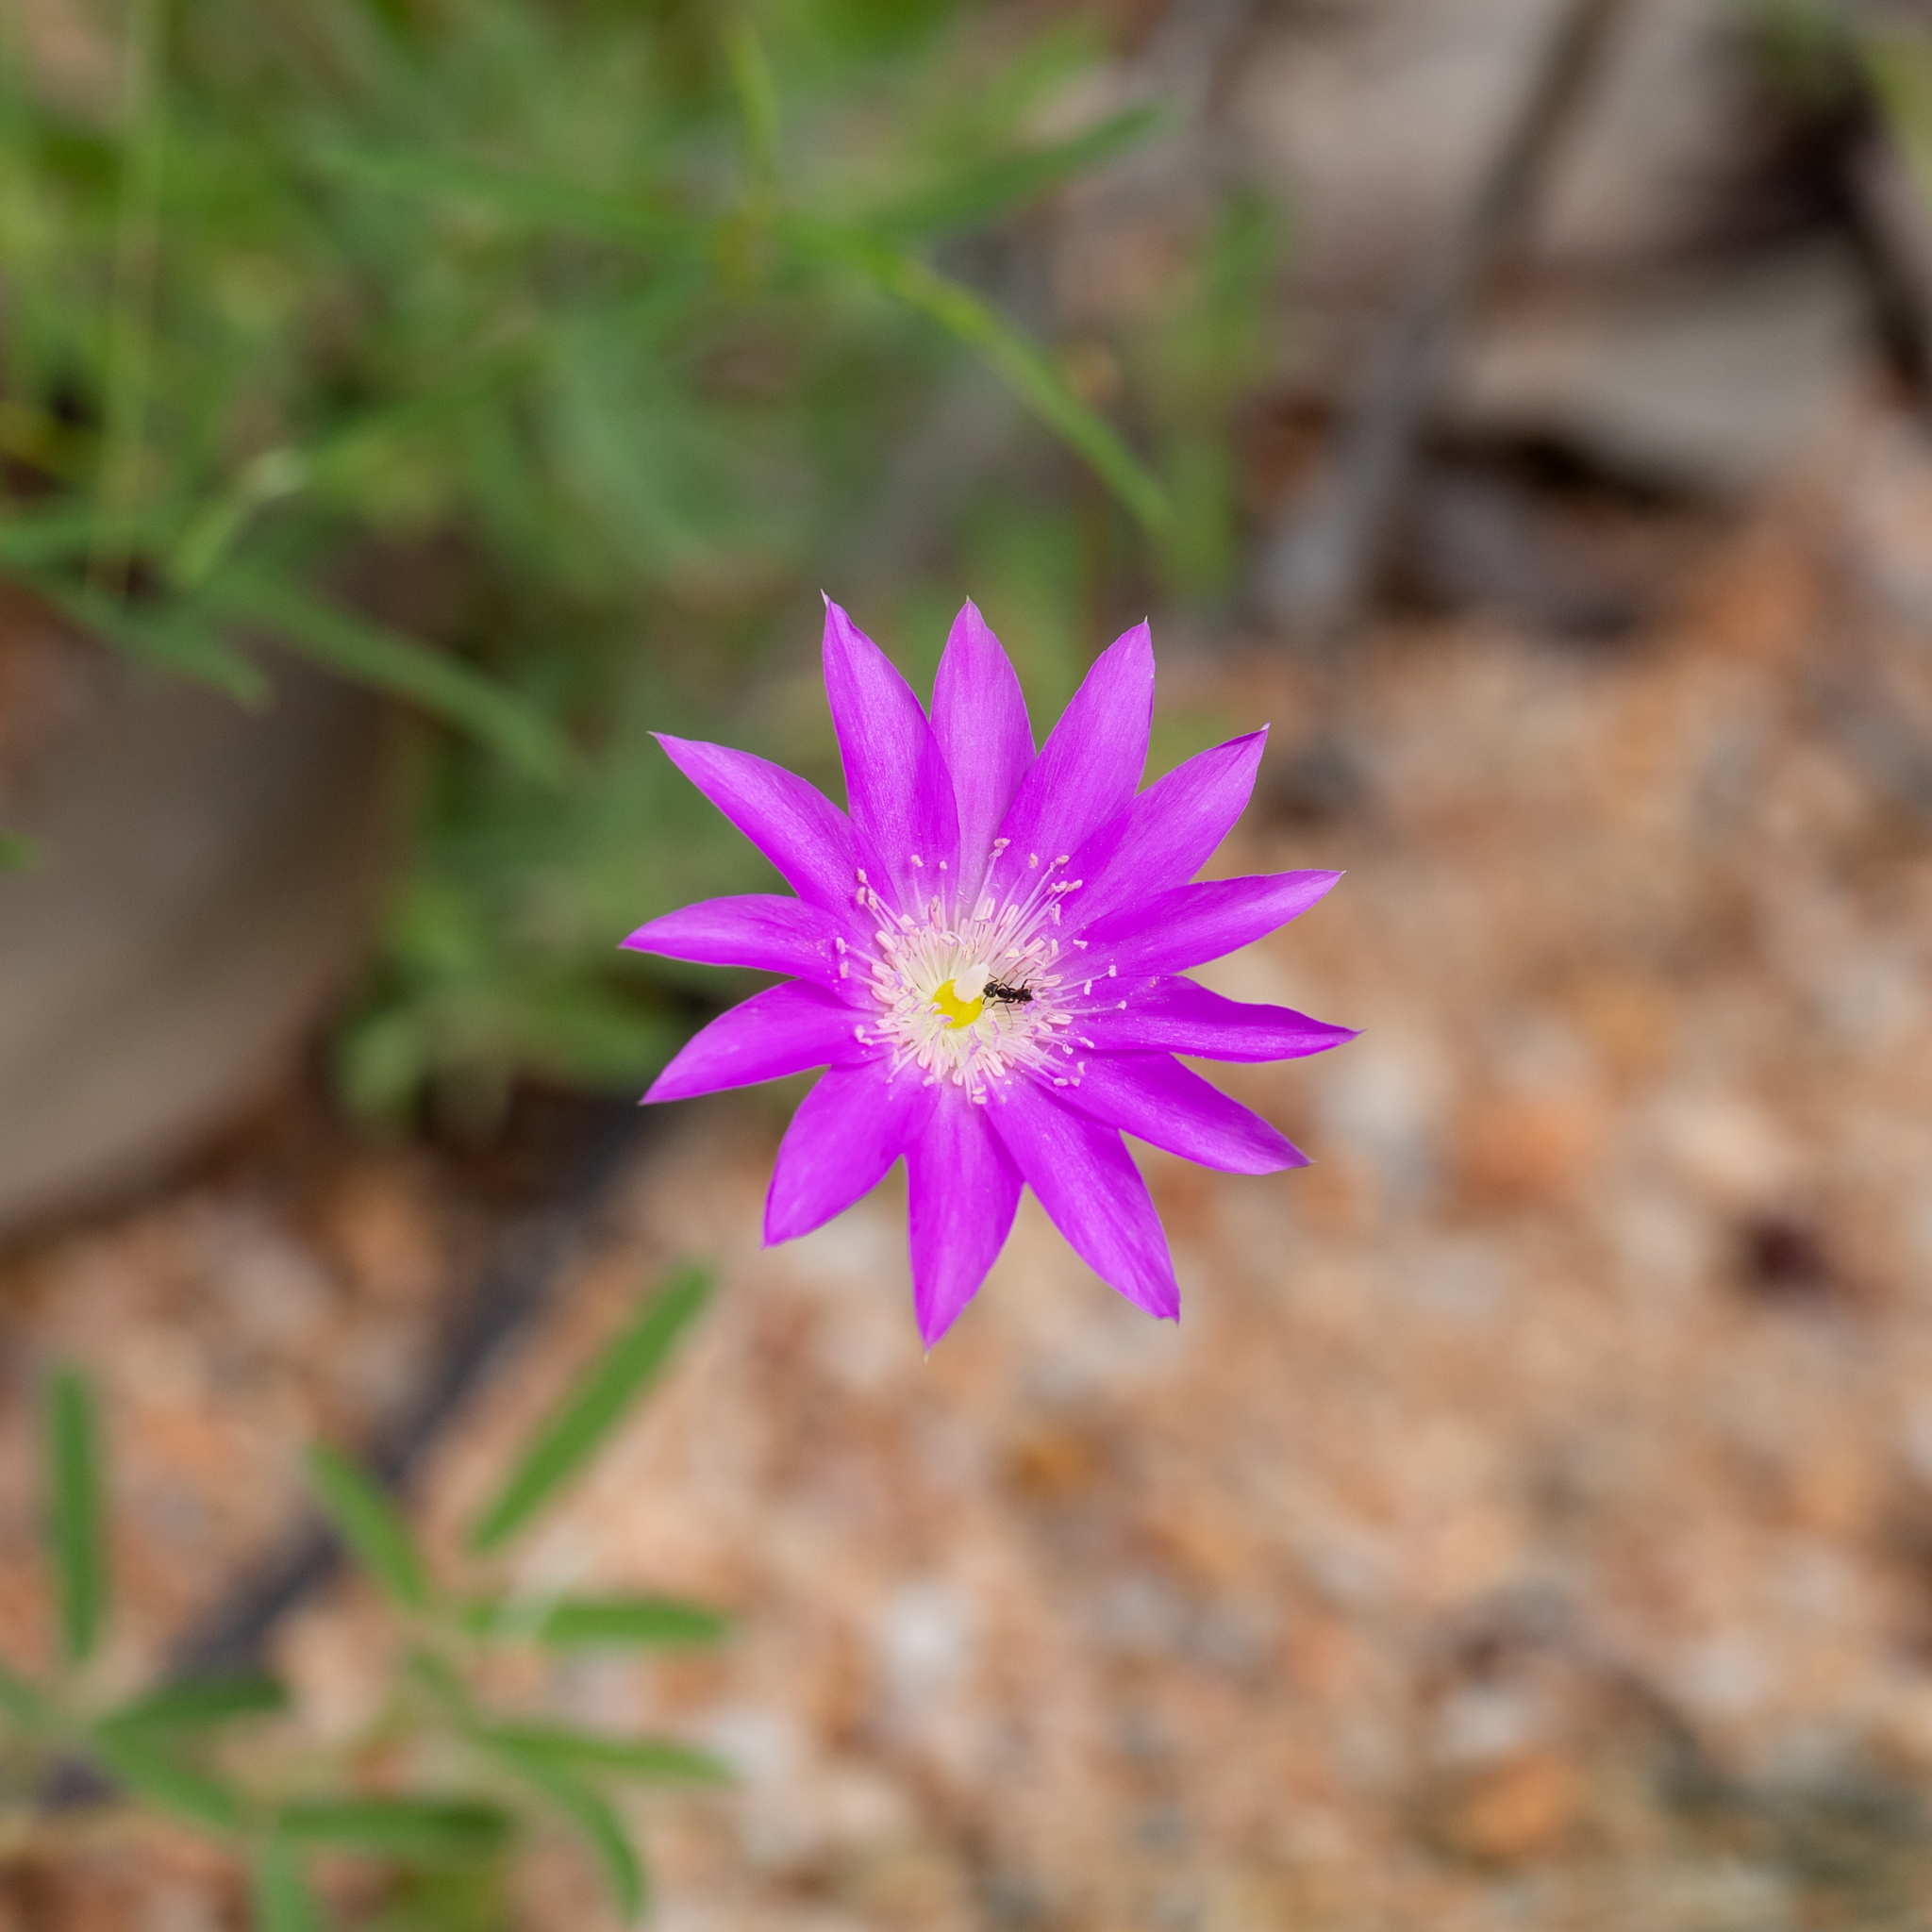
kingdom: Plantae
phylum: Tracheophyta
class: Magnoliopsida
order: Caryophyllales
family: Montiaceae
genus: Rumicastrum
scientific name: Rumicastrum uniflorum
